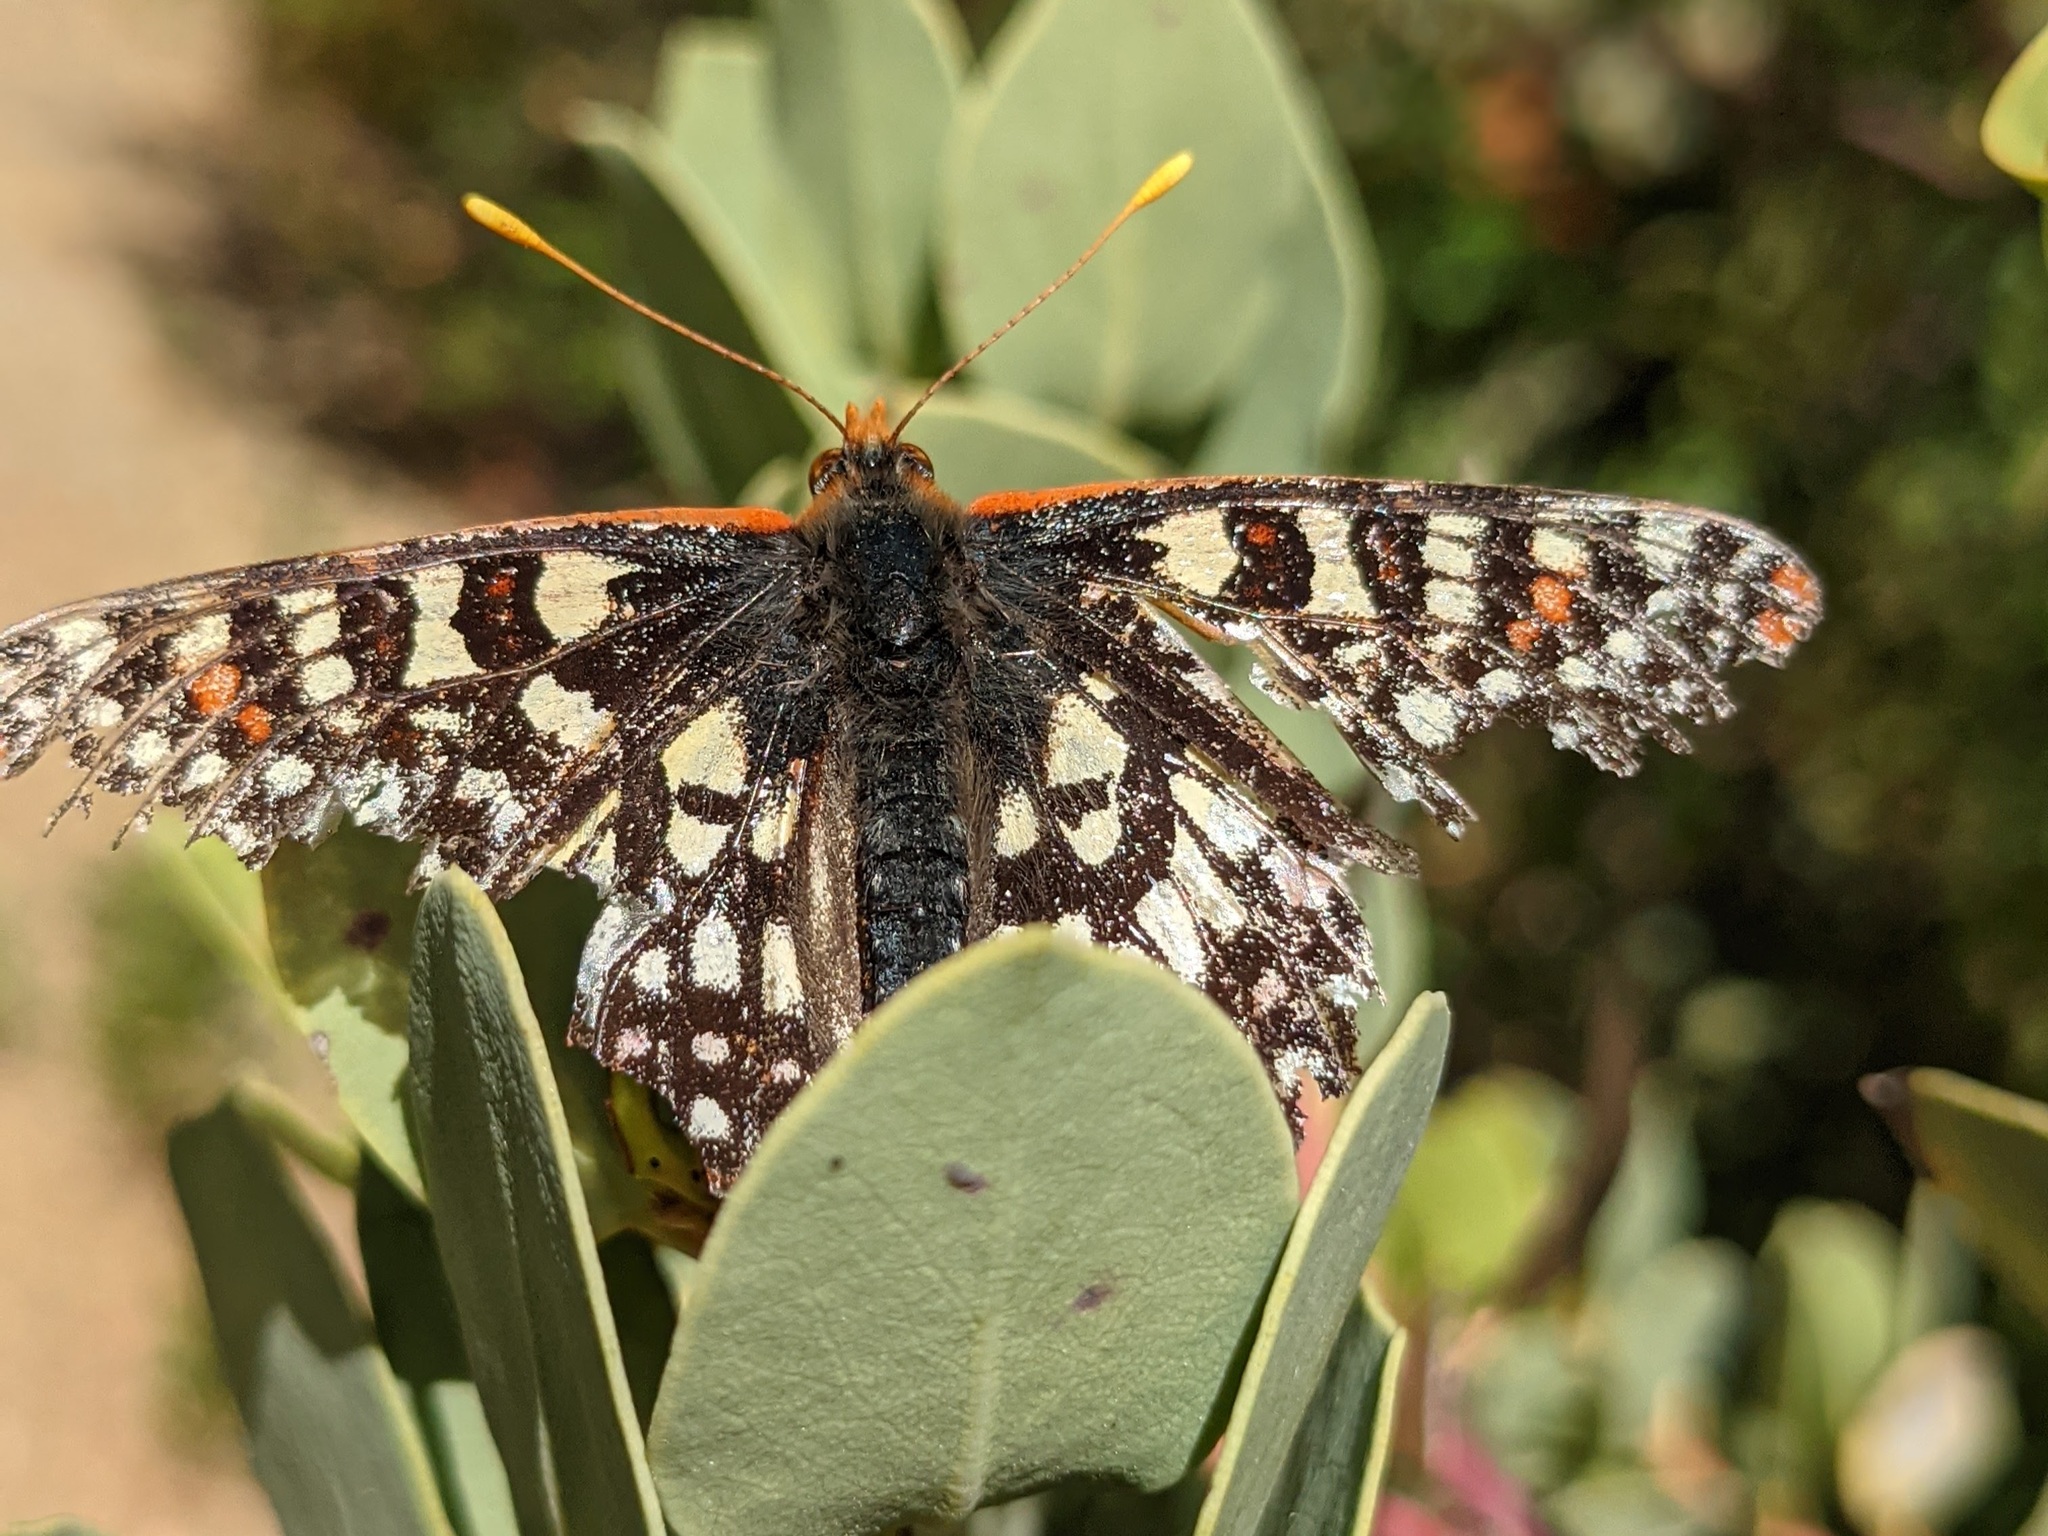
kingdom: Animalia
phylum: Arthropoda
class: Insecta
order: Lepidoptera
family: Nymphalidae
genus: Occidryas
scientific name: Occidryas chalcedona
